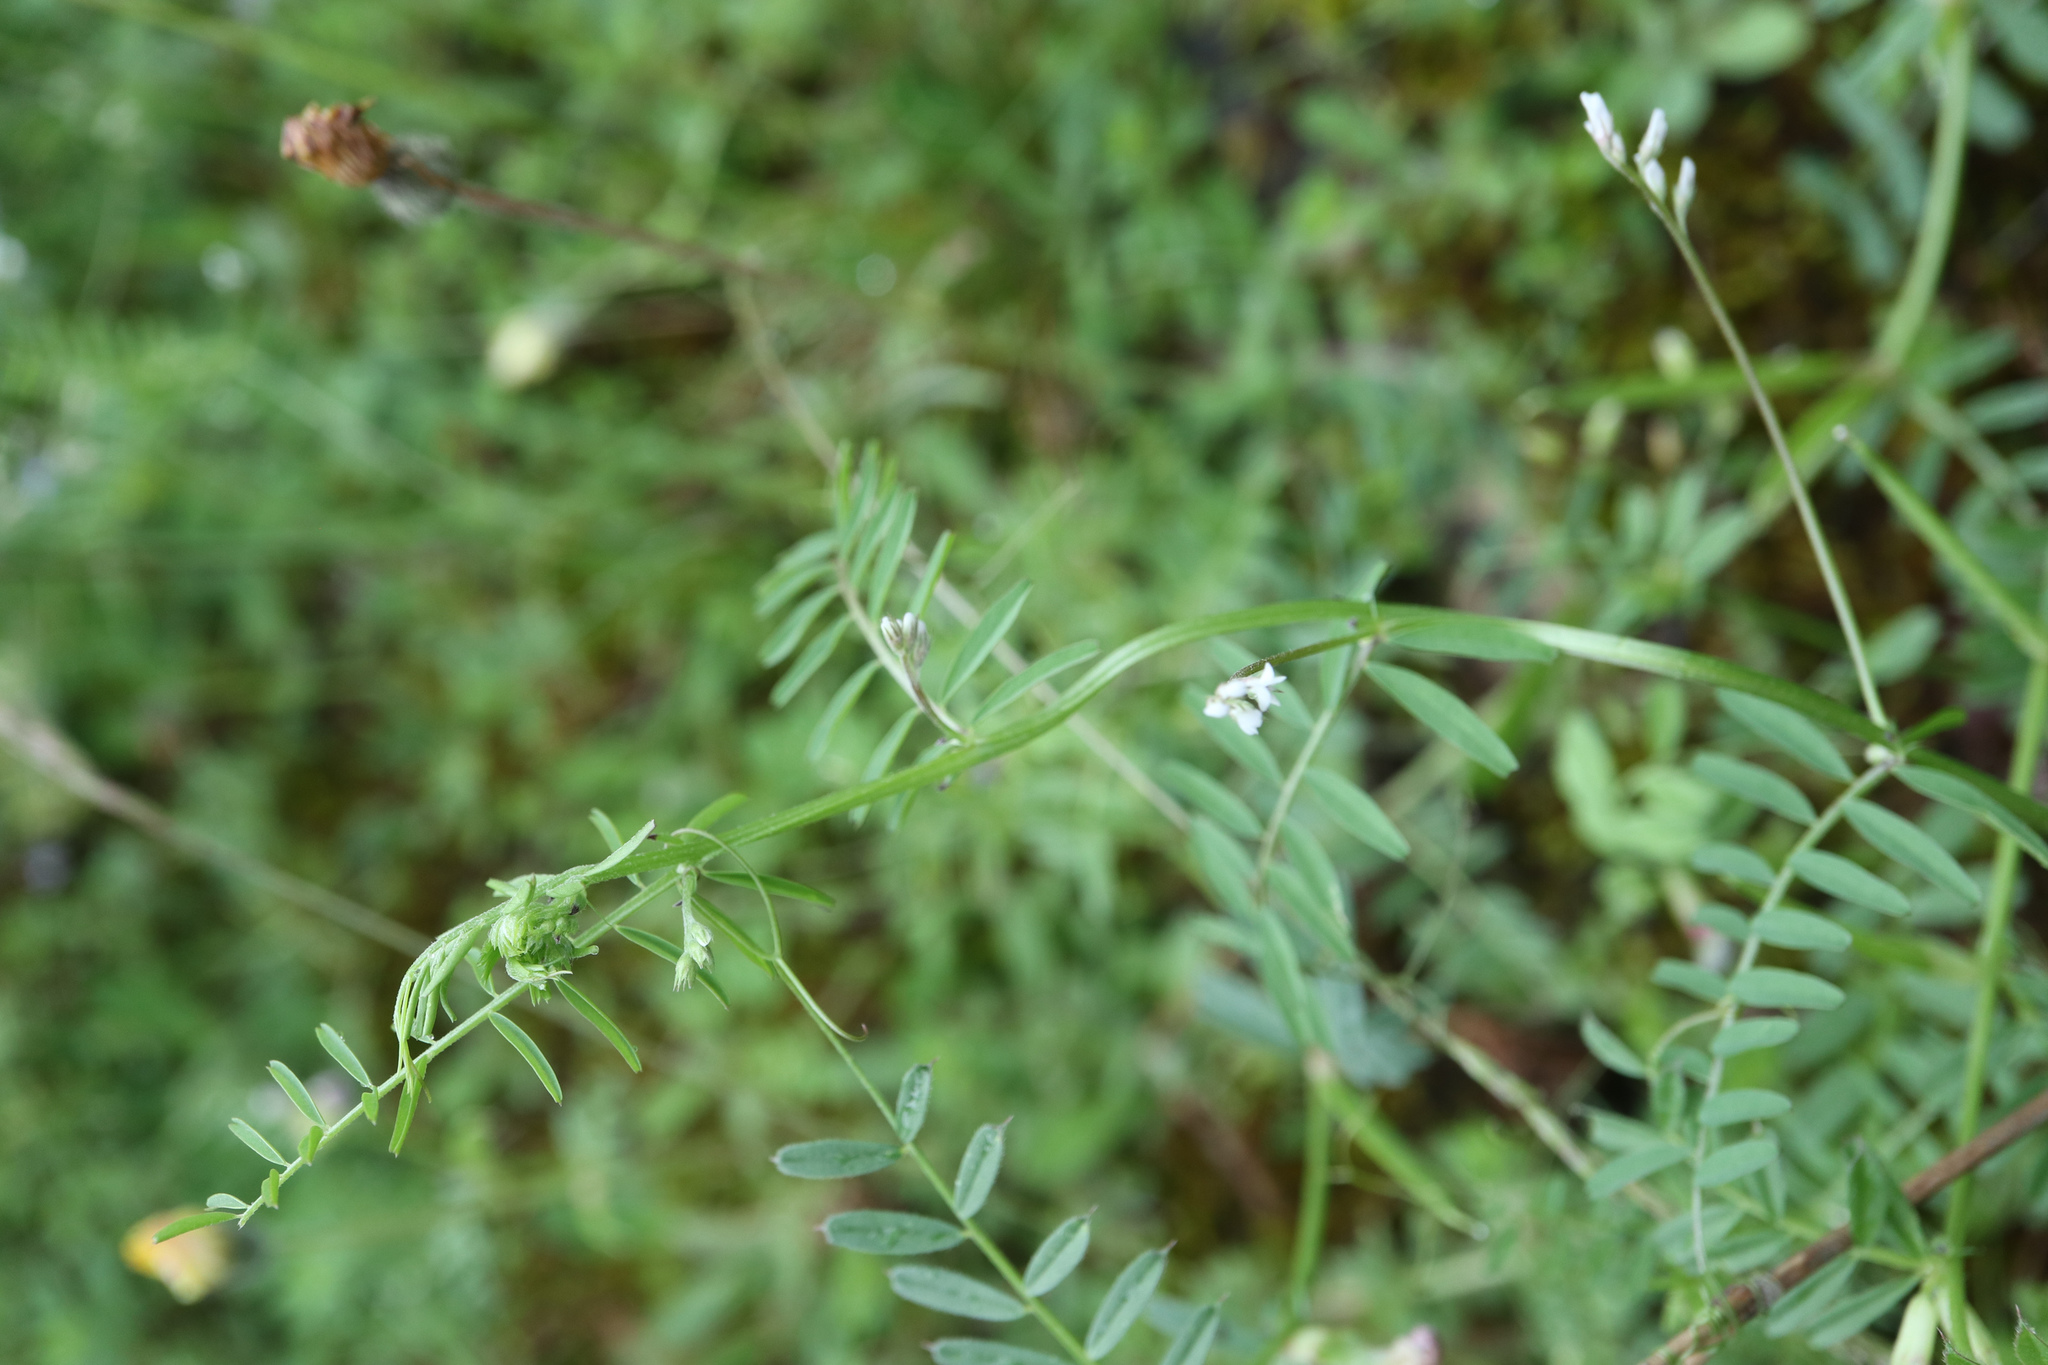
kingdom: Plantae
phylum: Tracheophyta
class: Magnoliopsida
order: Fabales
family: Fabaceae
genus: Vicia
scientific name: Vicia hirsuta
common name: Tiny vetch
